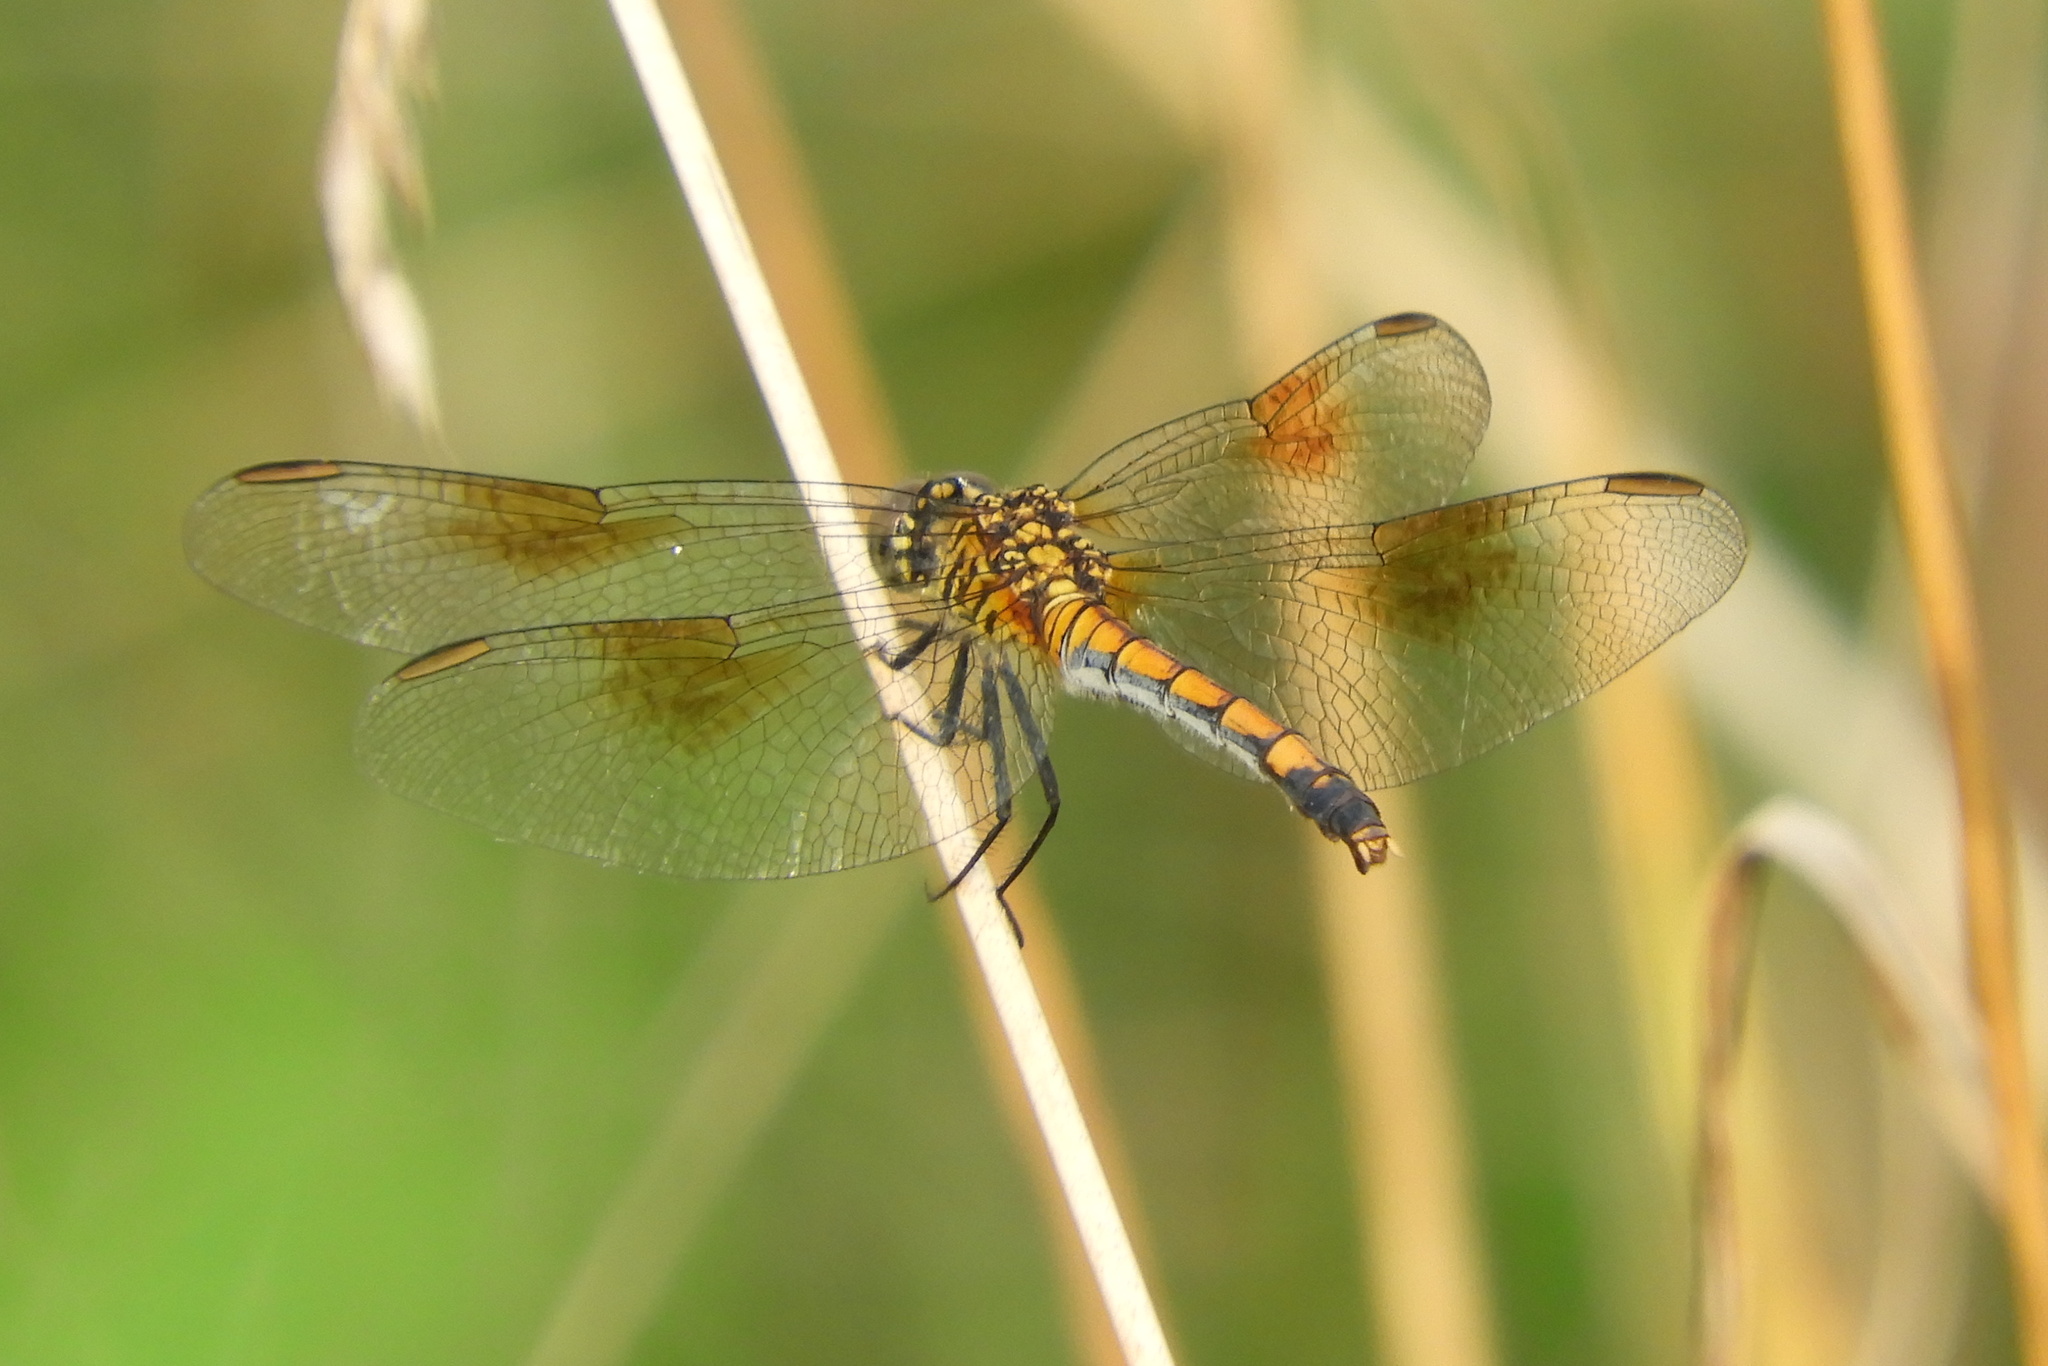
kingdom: Animalia
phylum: Arthropoda
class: Insecta
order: Odonata
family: Libellulidae
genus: Erythrodiplax
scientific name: Erythrodiplax berenice
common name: Seaside dragonlet
